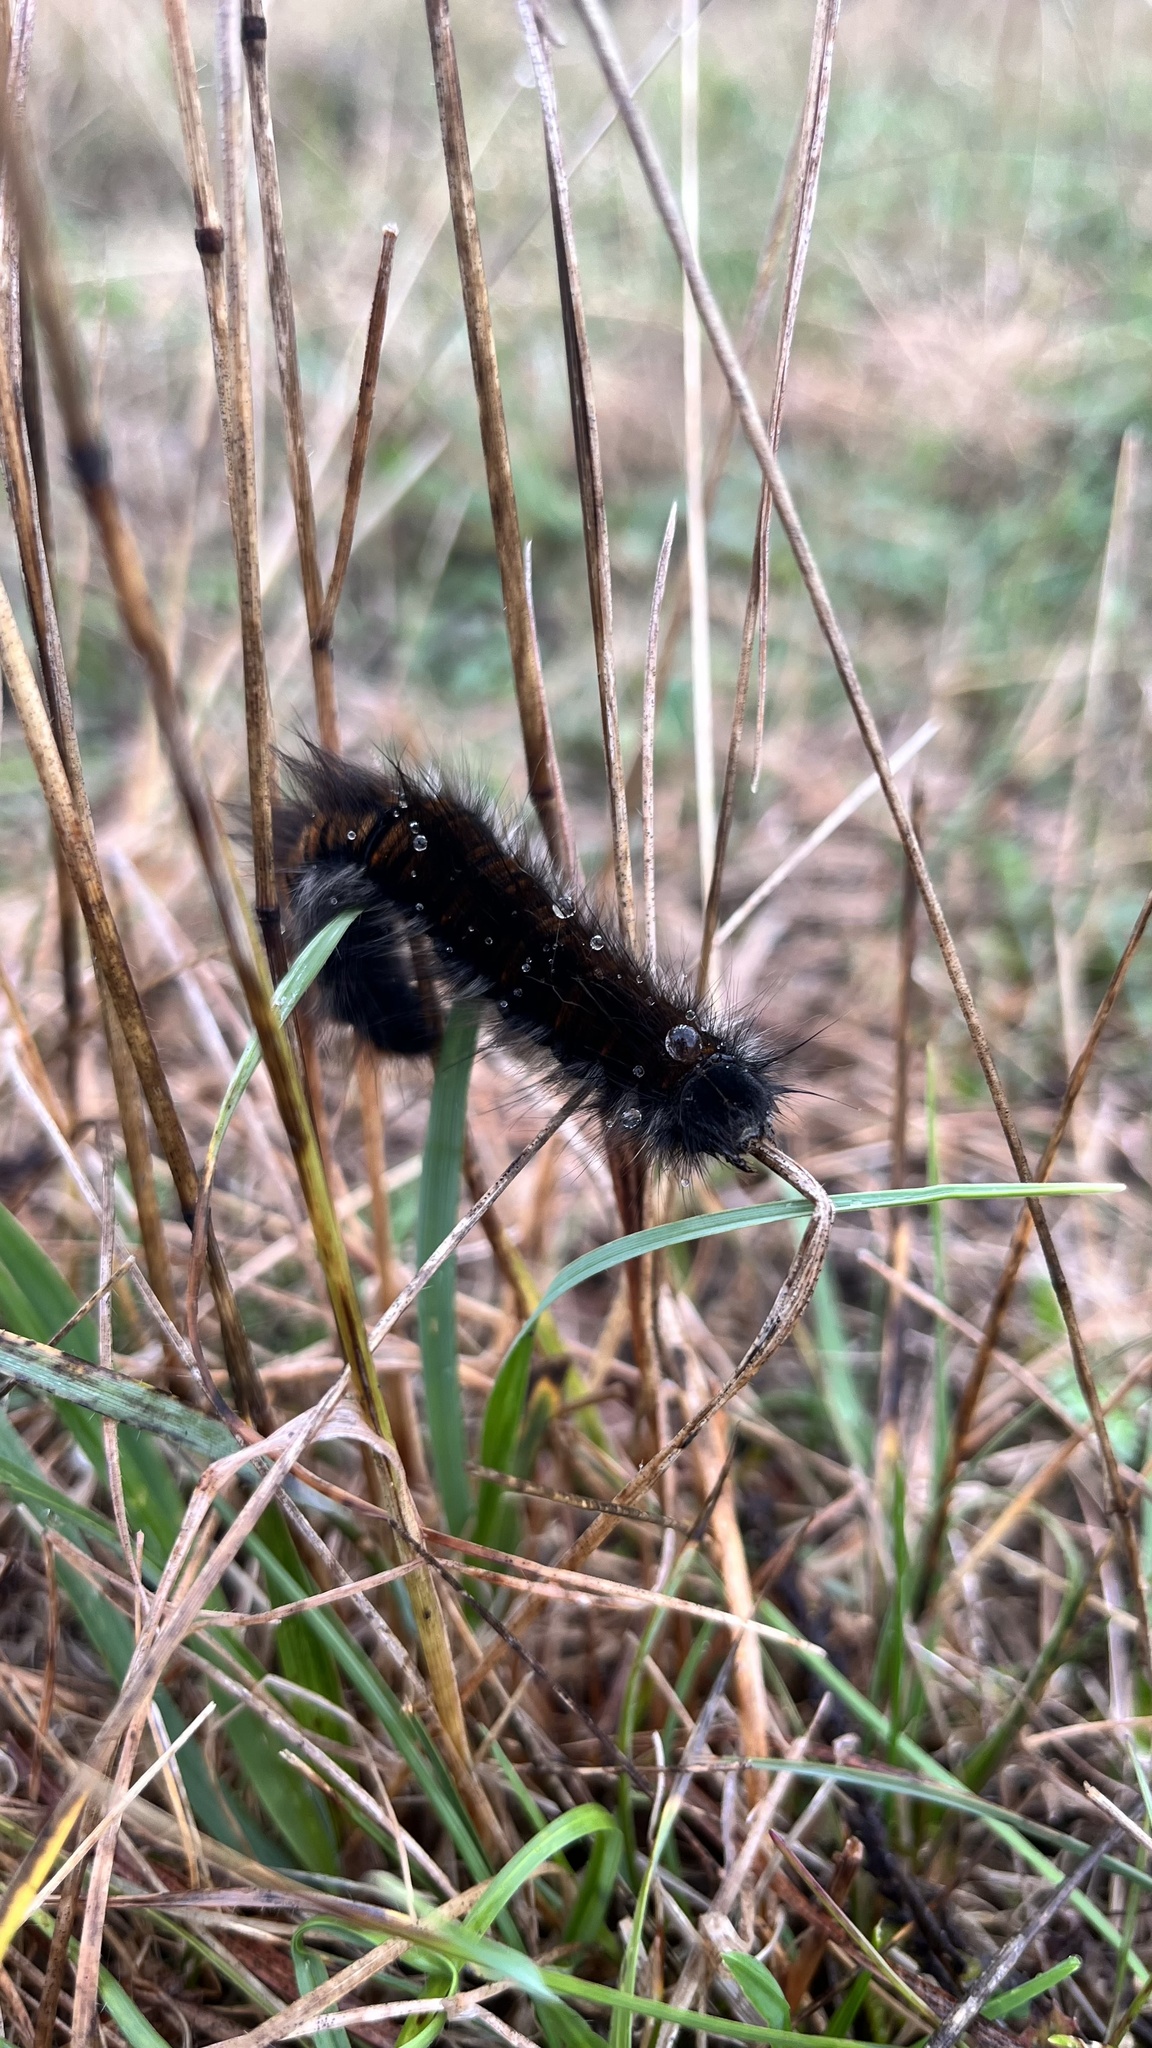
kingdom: Animalia
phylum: Arthropoda
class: Insecta
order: Lepidoptera
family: Lasiocampidae
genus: Macrothylacia
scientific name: Macrothylacia rubi
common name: Fox moth
